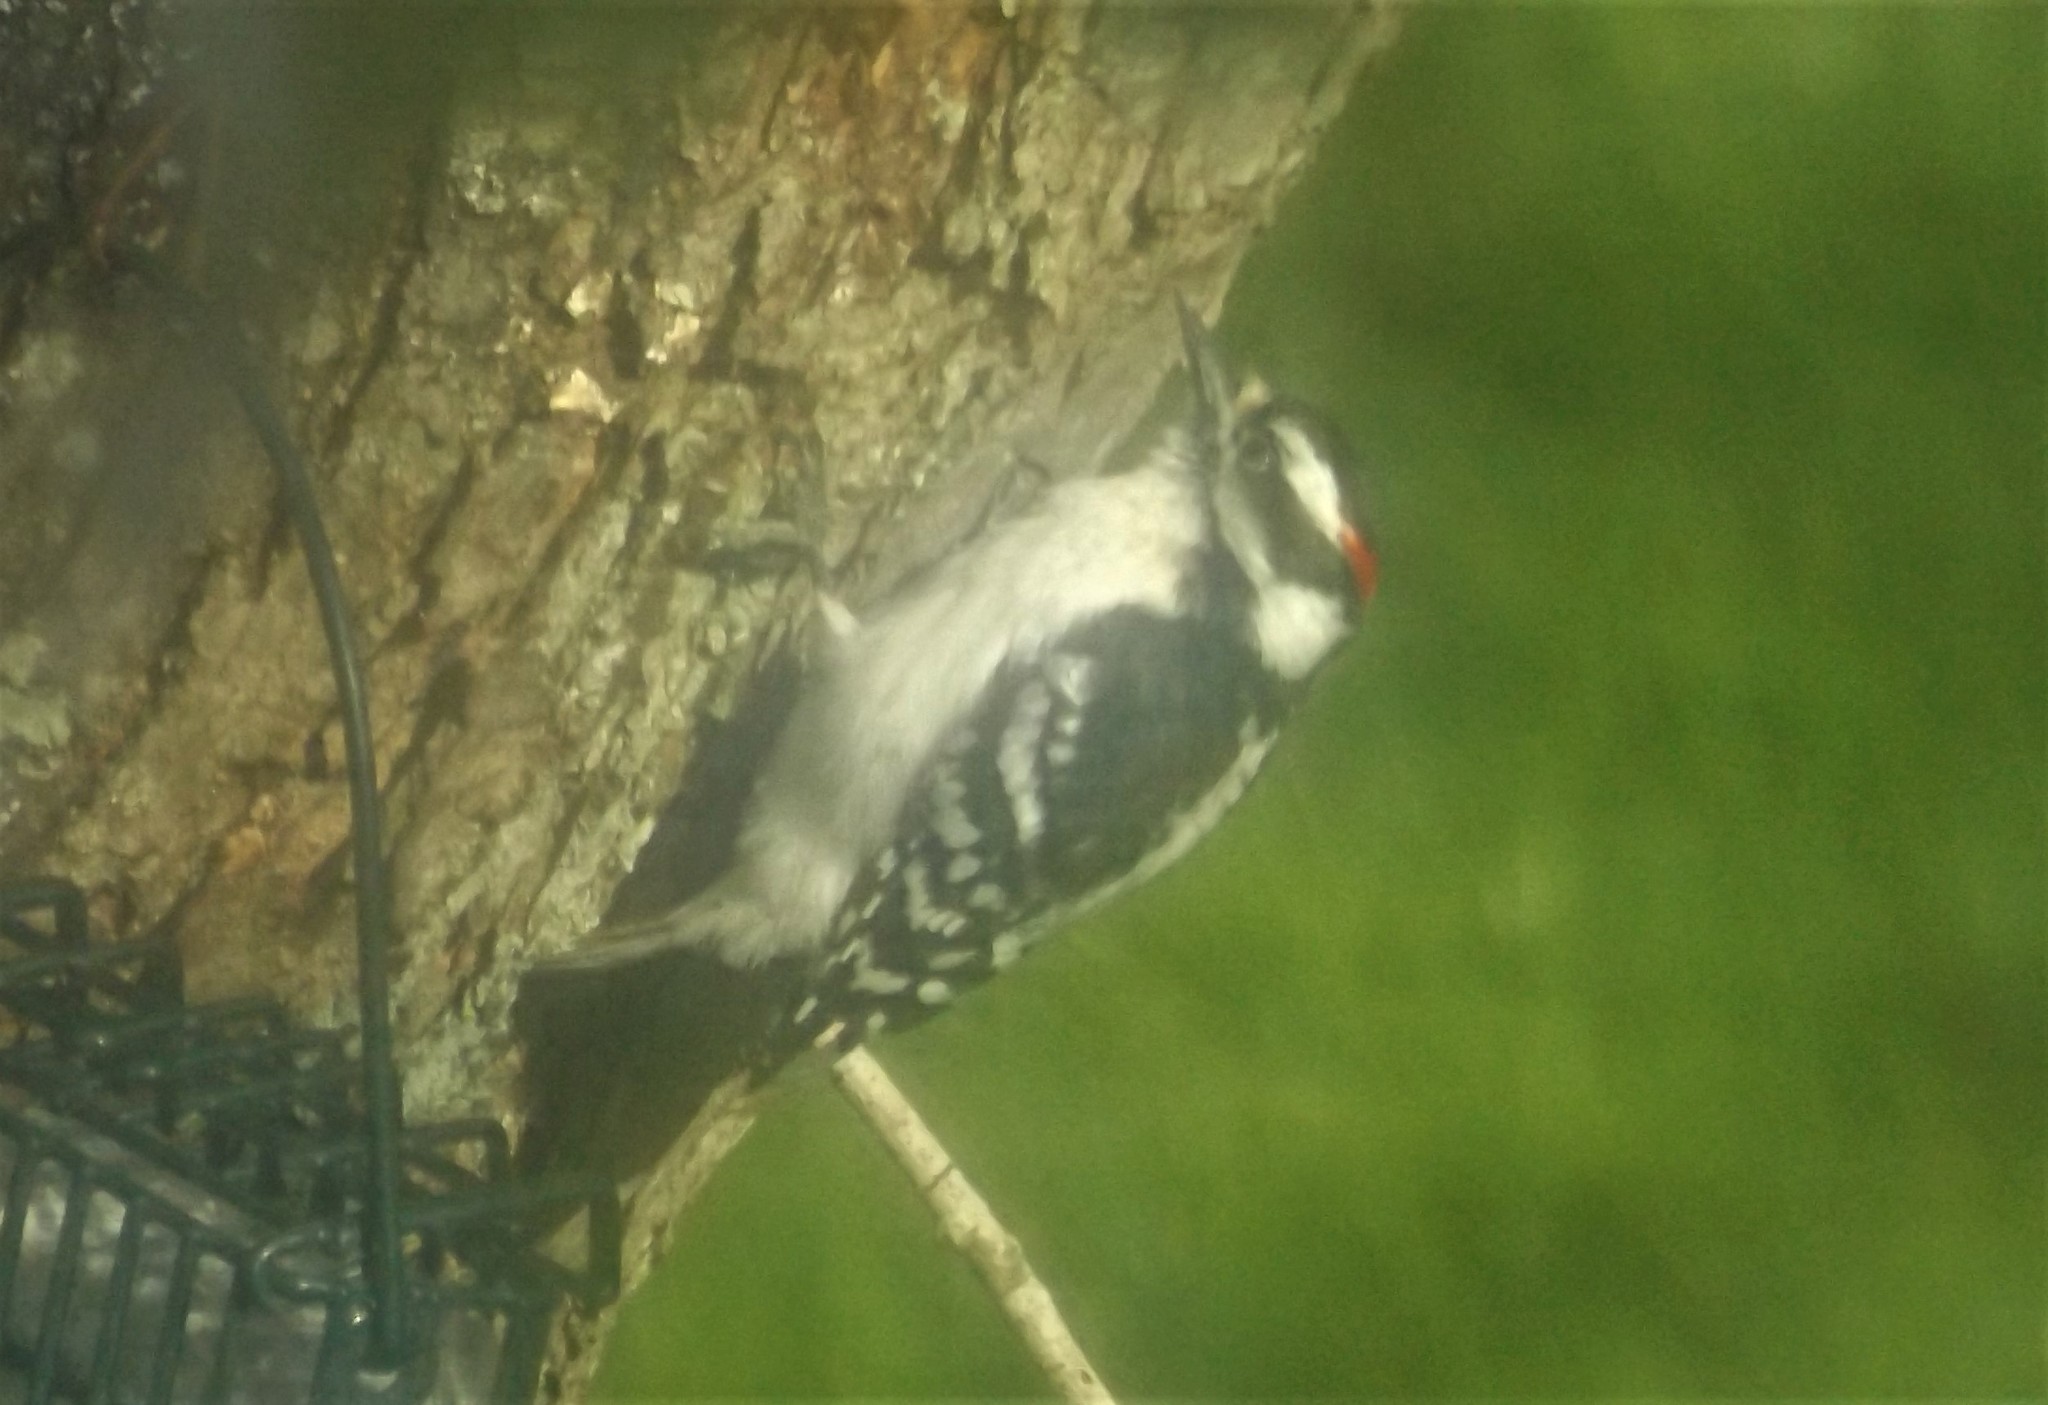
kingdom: Animalia
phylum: Chordata
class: Aves
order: Piciformes
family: Picidae
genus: Dryobates
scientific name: Dryobates pubescens
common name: Downy woodpecker
